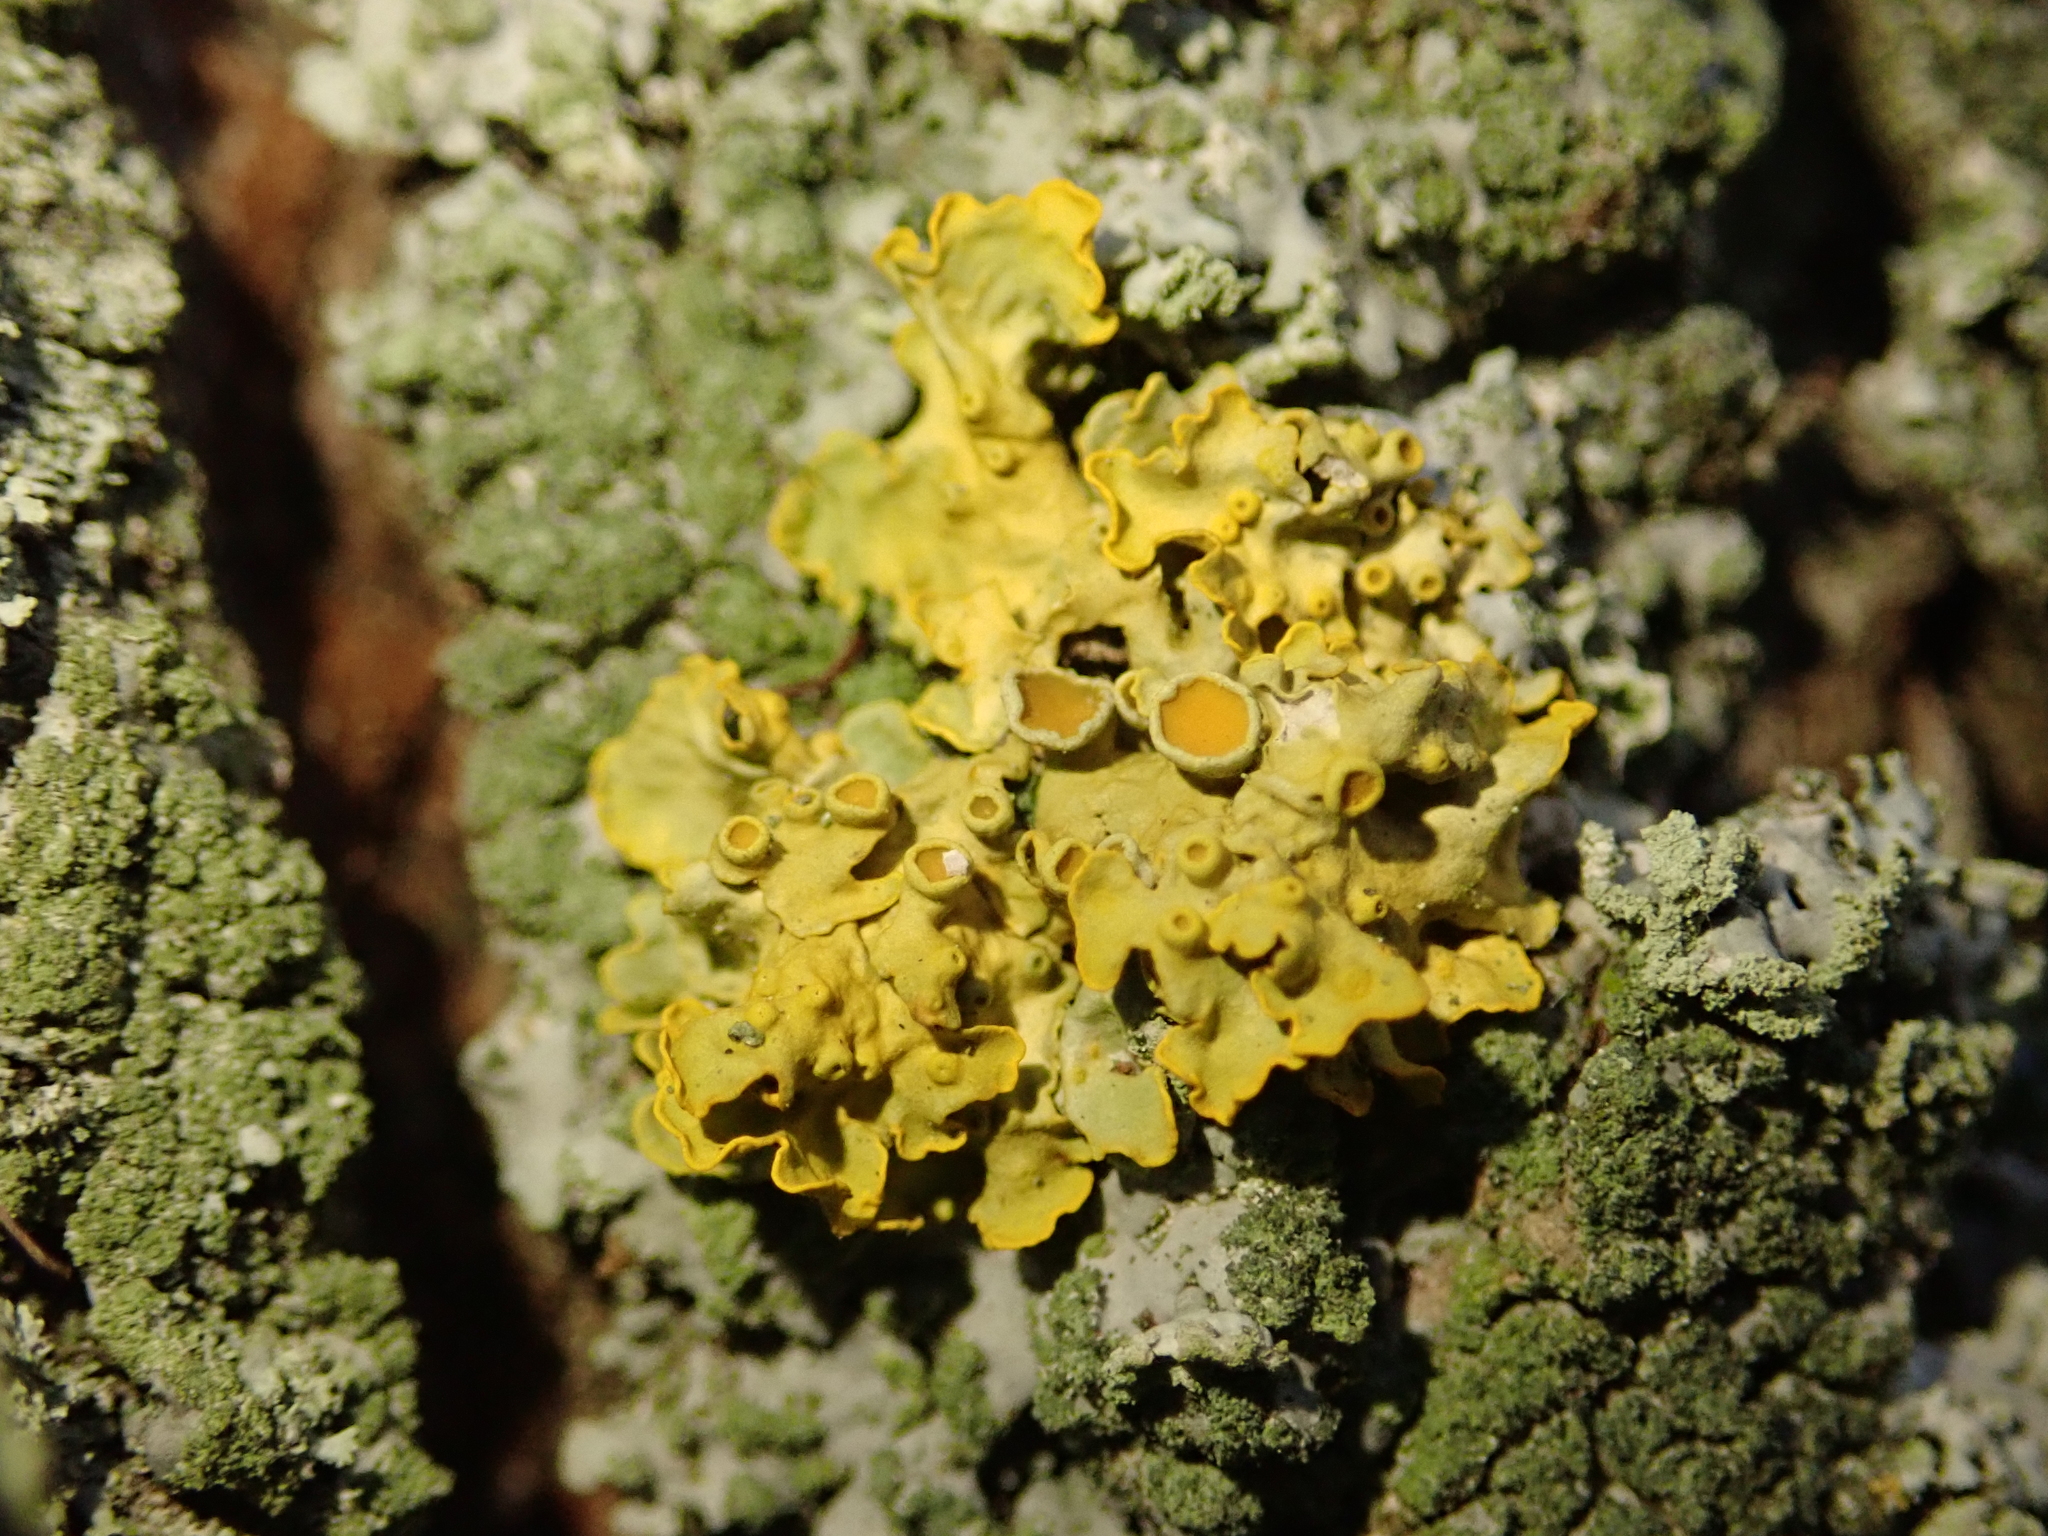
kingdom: Fungi
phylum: Ascomycota
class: Lecanoromycetes
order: Teloschistales
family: Teloschistaceae
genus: Xanthoria
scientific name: Xanthoria parietina
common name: Common orange lichen
